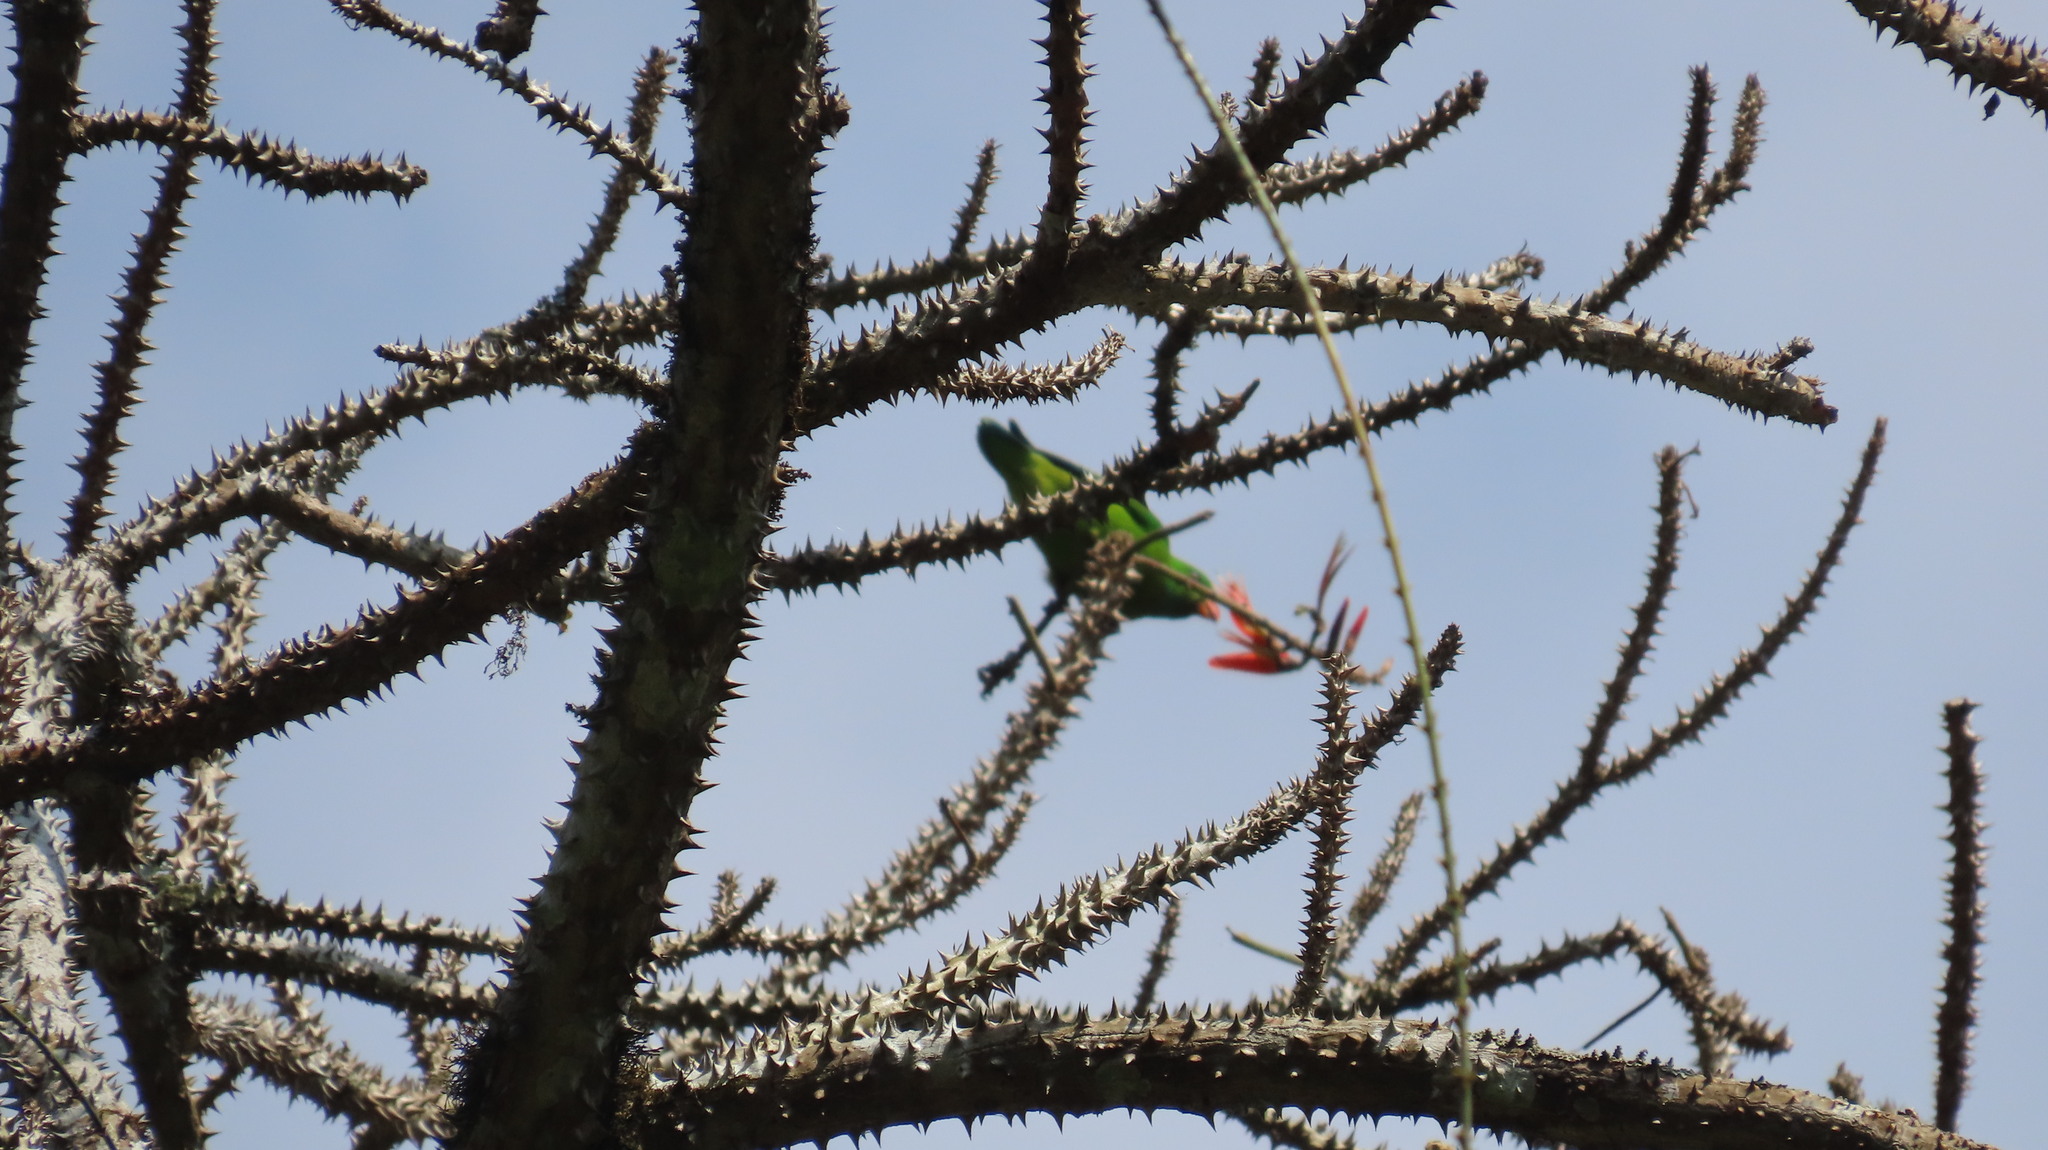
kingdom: Animalia
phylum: Chordata
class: Aves
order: Psittaciformes
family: Psittacidae
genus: Loriculus
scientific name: Loriculus vernalis
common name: Vernal hanging parrot
